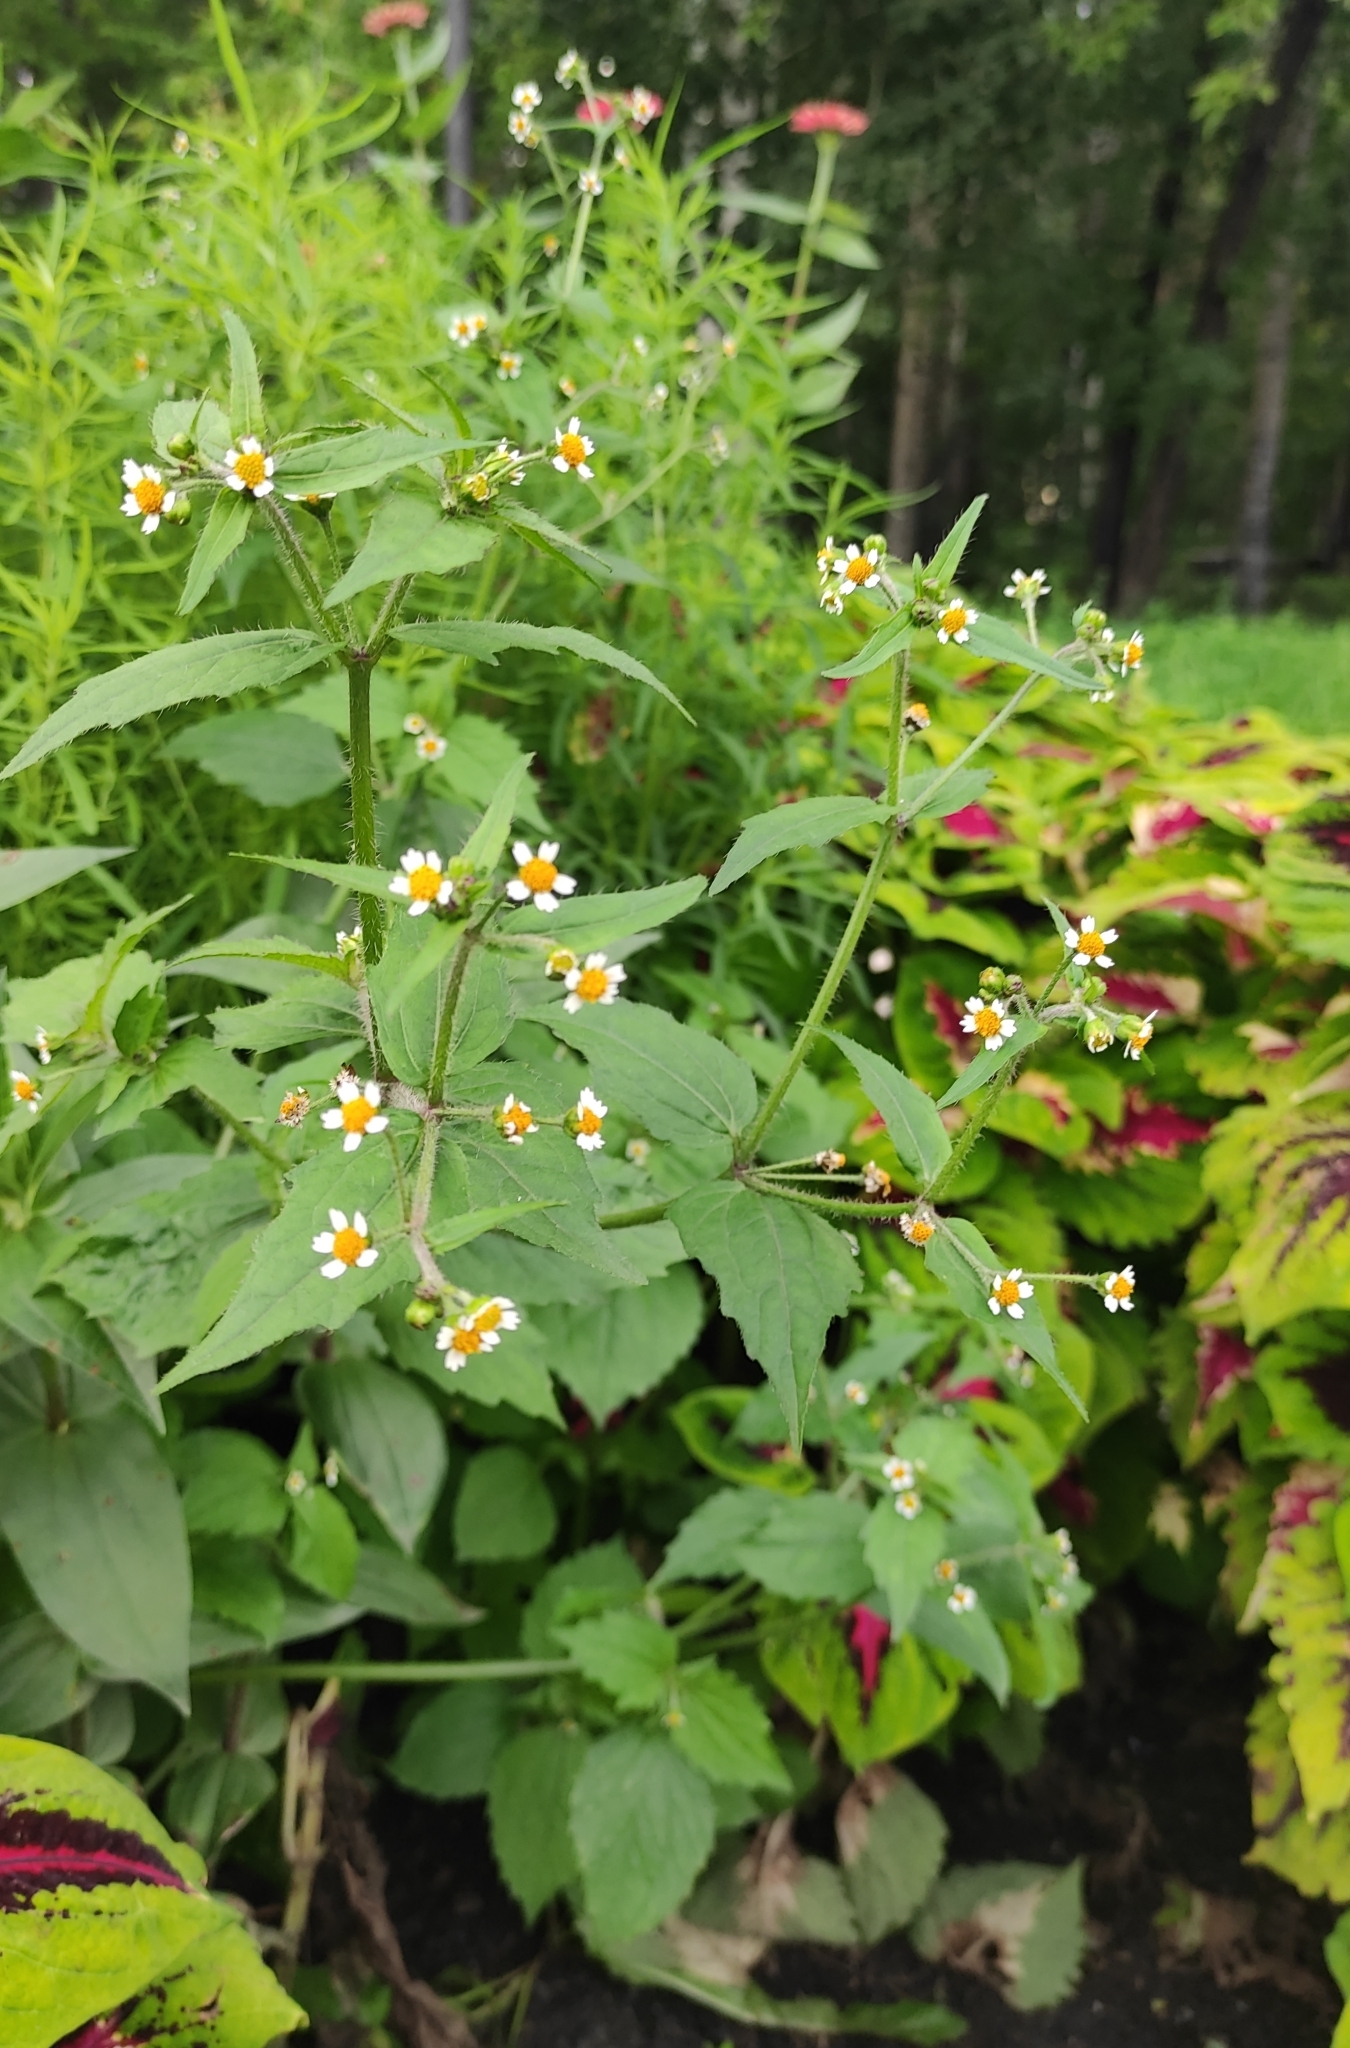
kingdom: Plantae
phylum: Tracheophyta
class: Magnoliopsida
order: Asterales
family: Asteraceae
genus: Galinsoga
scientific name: Galinsoga quadriradiata
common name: Shaggy soldier
